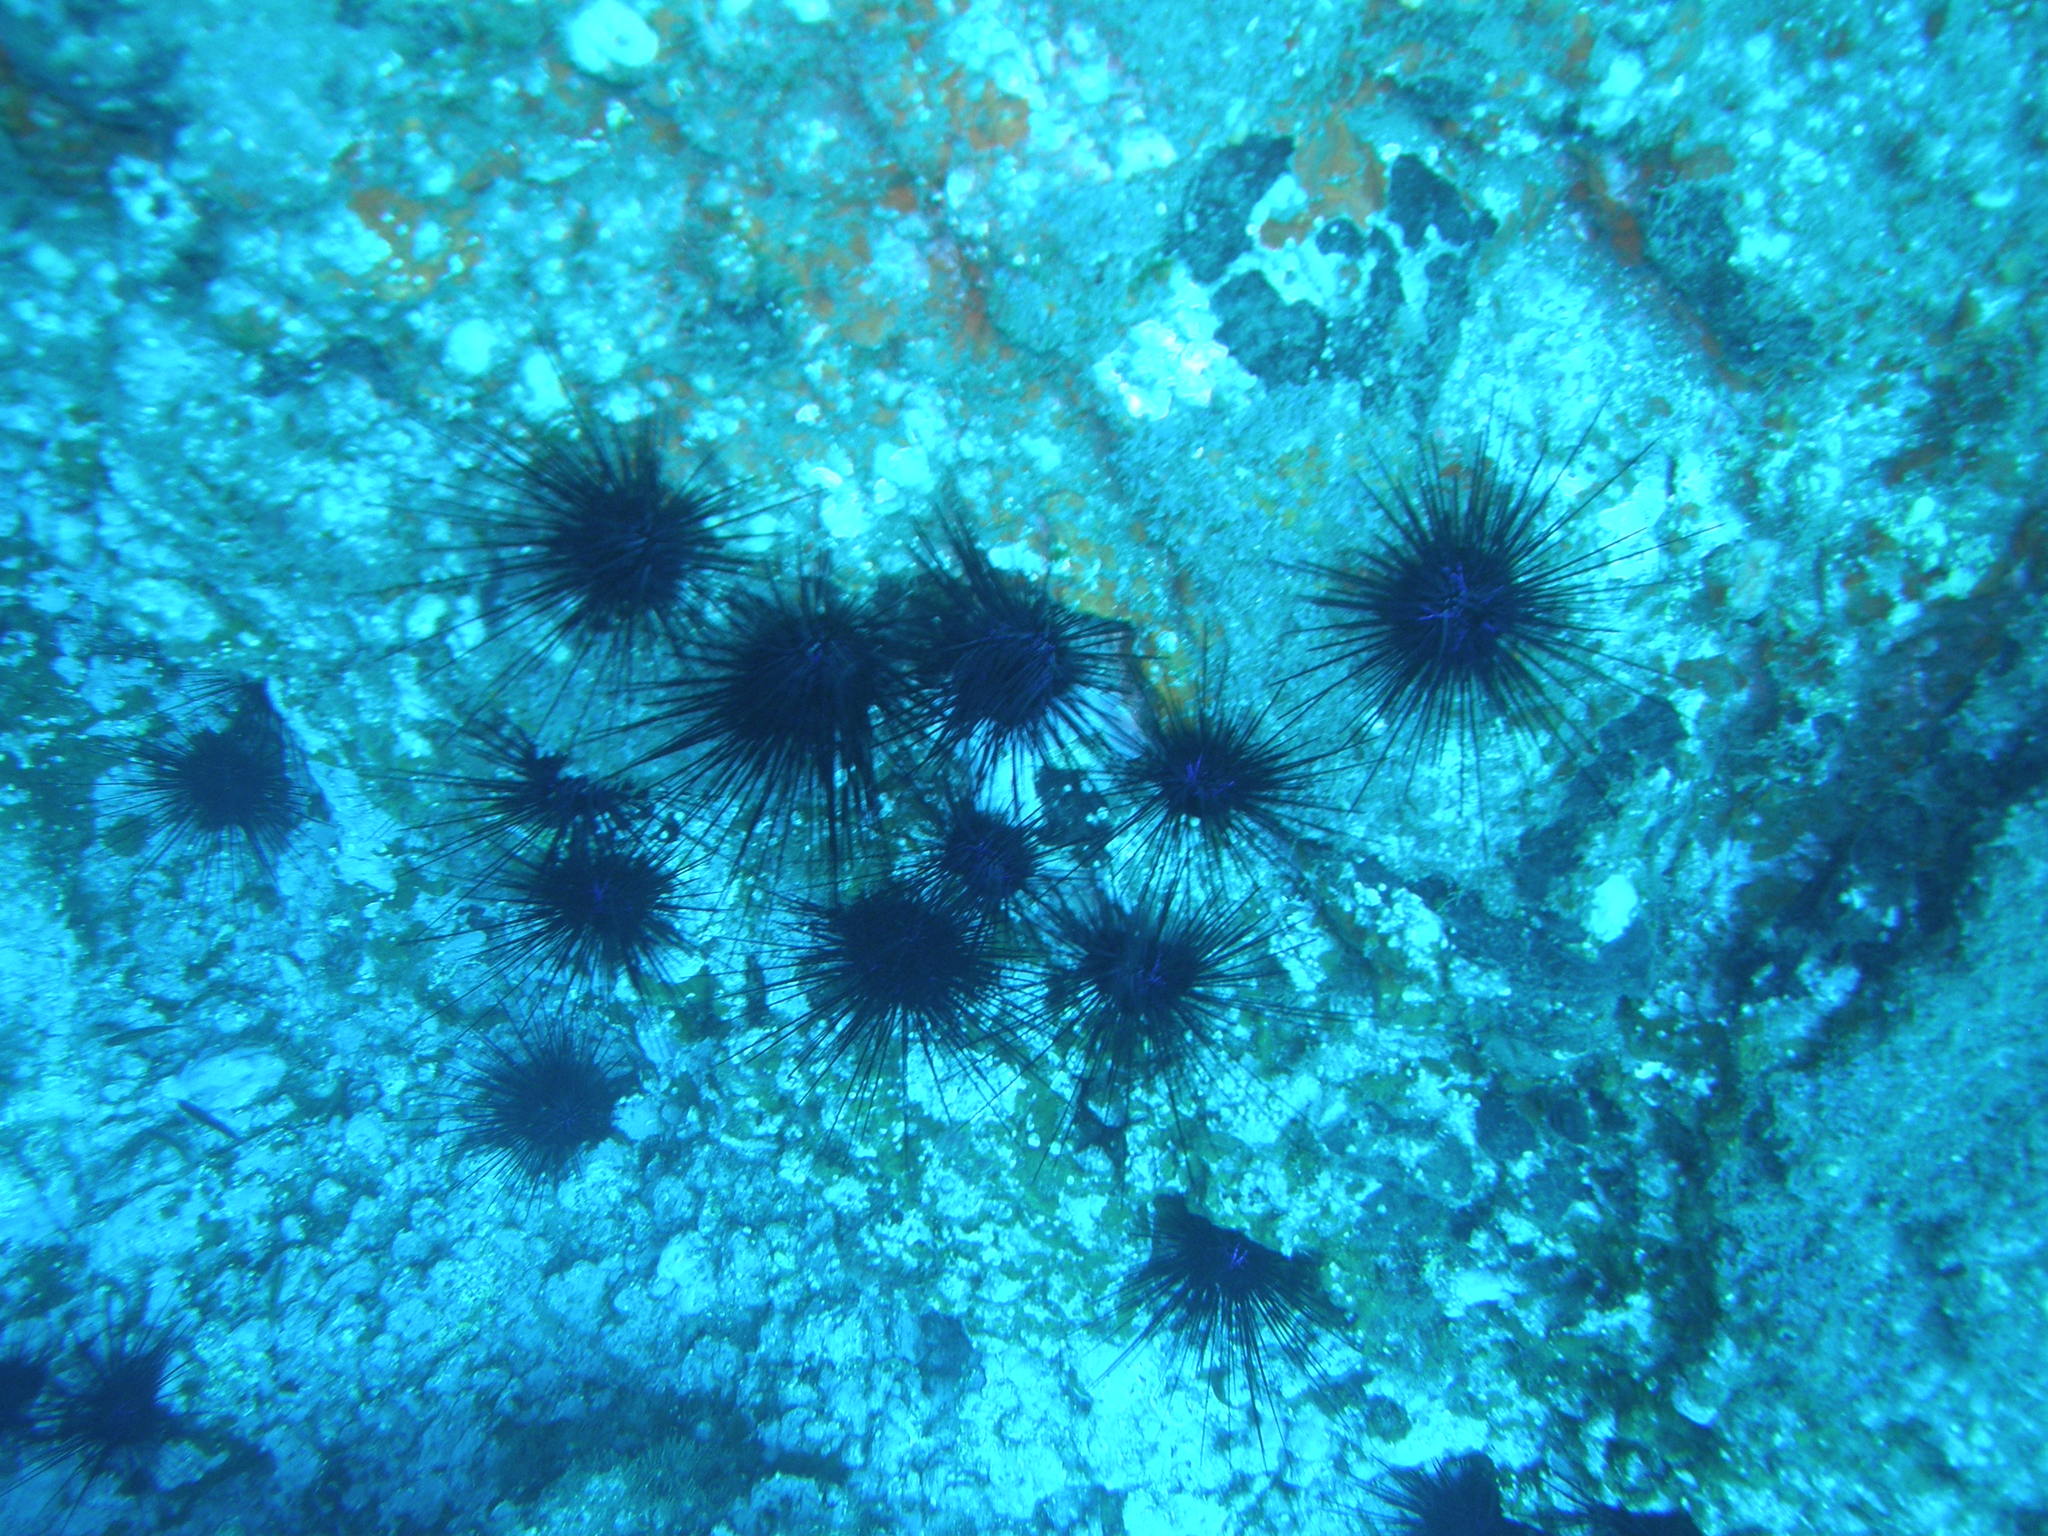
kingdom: Animalia
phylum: Echinodermata
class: Echinoidea
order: Diadematoida
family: Diadematidae
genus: Diadema
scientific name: Diadema africanum
